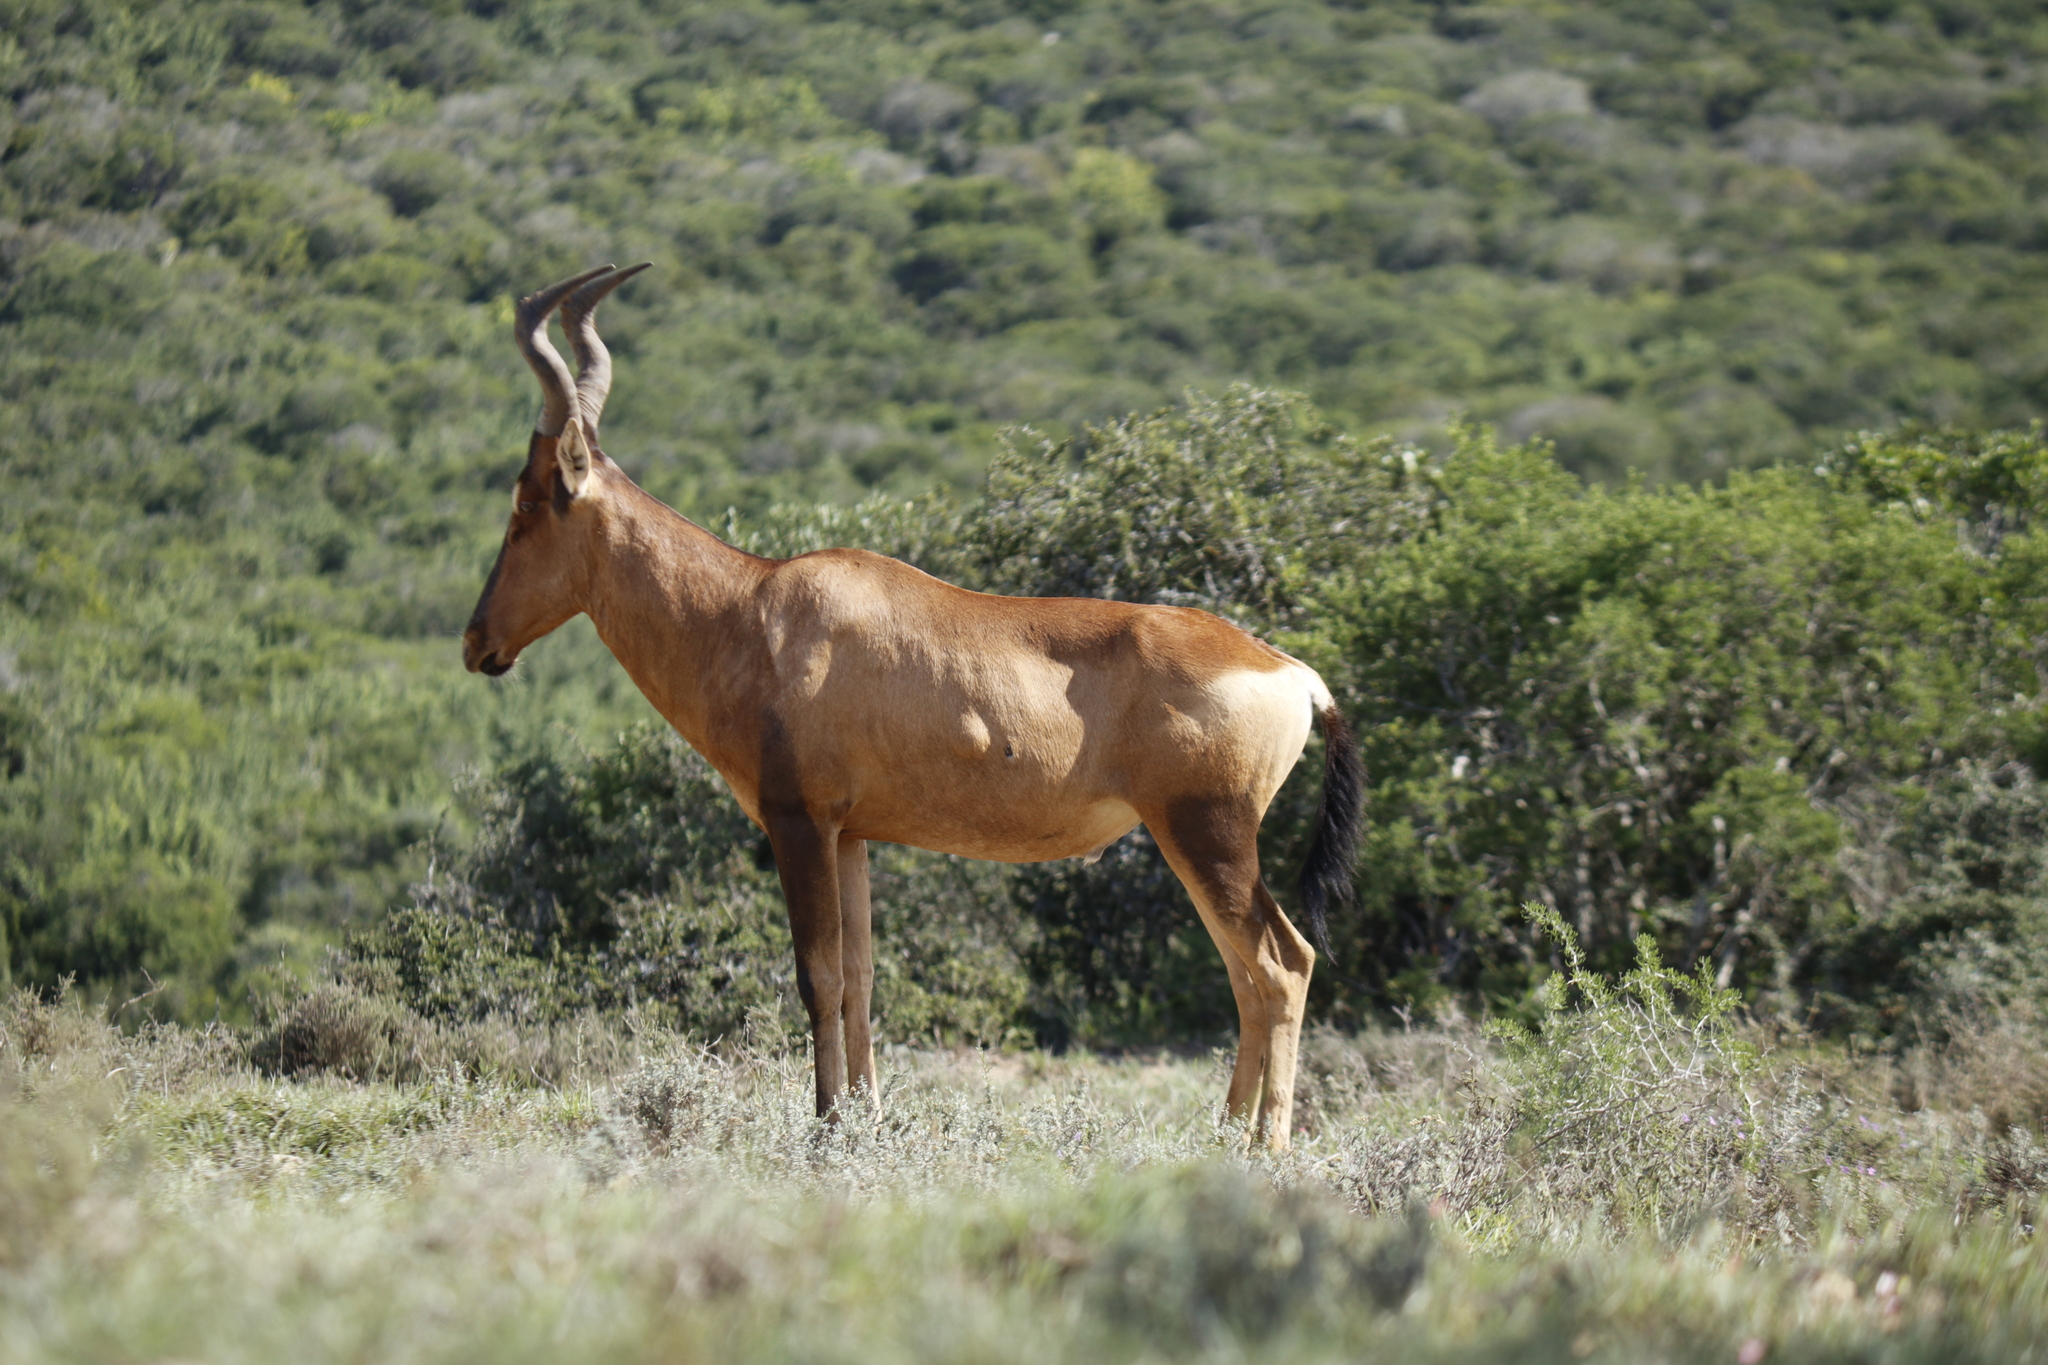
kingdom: Animalia
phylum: Chordata
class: Mammalia
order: Artiodactyla
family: Bovidae
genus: Alcelaphus
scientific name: Alcelaphus caama
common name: Red hartebeest
